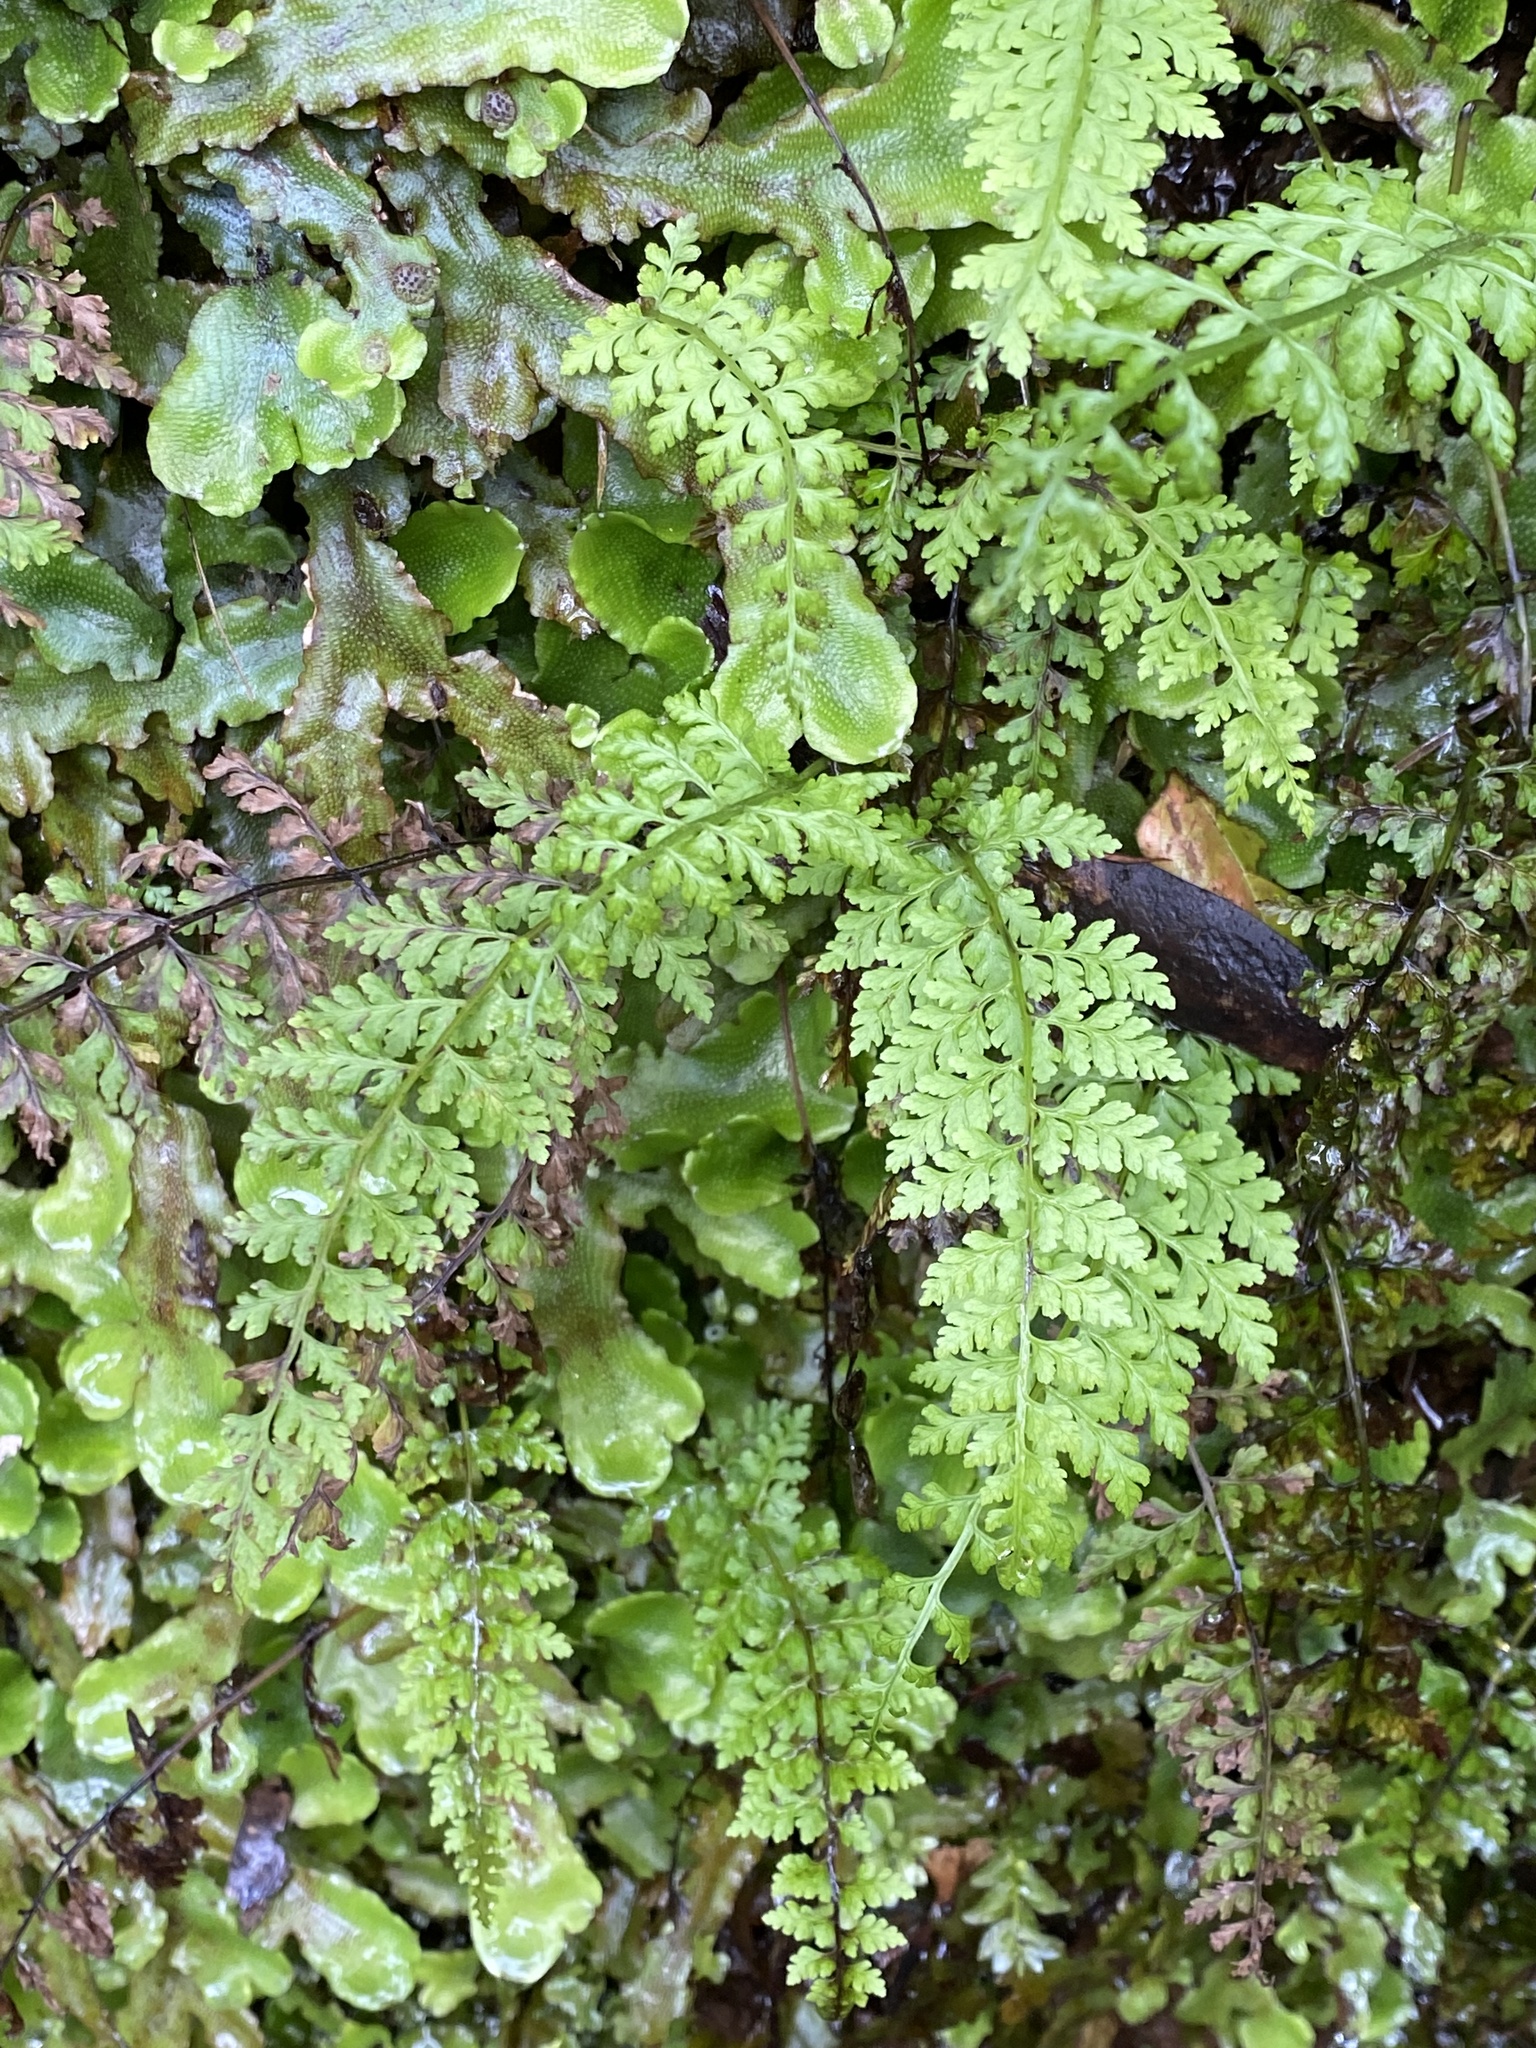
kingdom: Plantae
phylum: Tracheophyta
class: Polypodiopsida
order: Polypodiales
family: Cystopteridaceae
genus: Cystopteris
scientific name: Cystopteris diaphana
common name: Greenish bladder-fern
